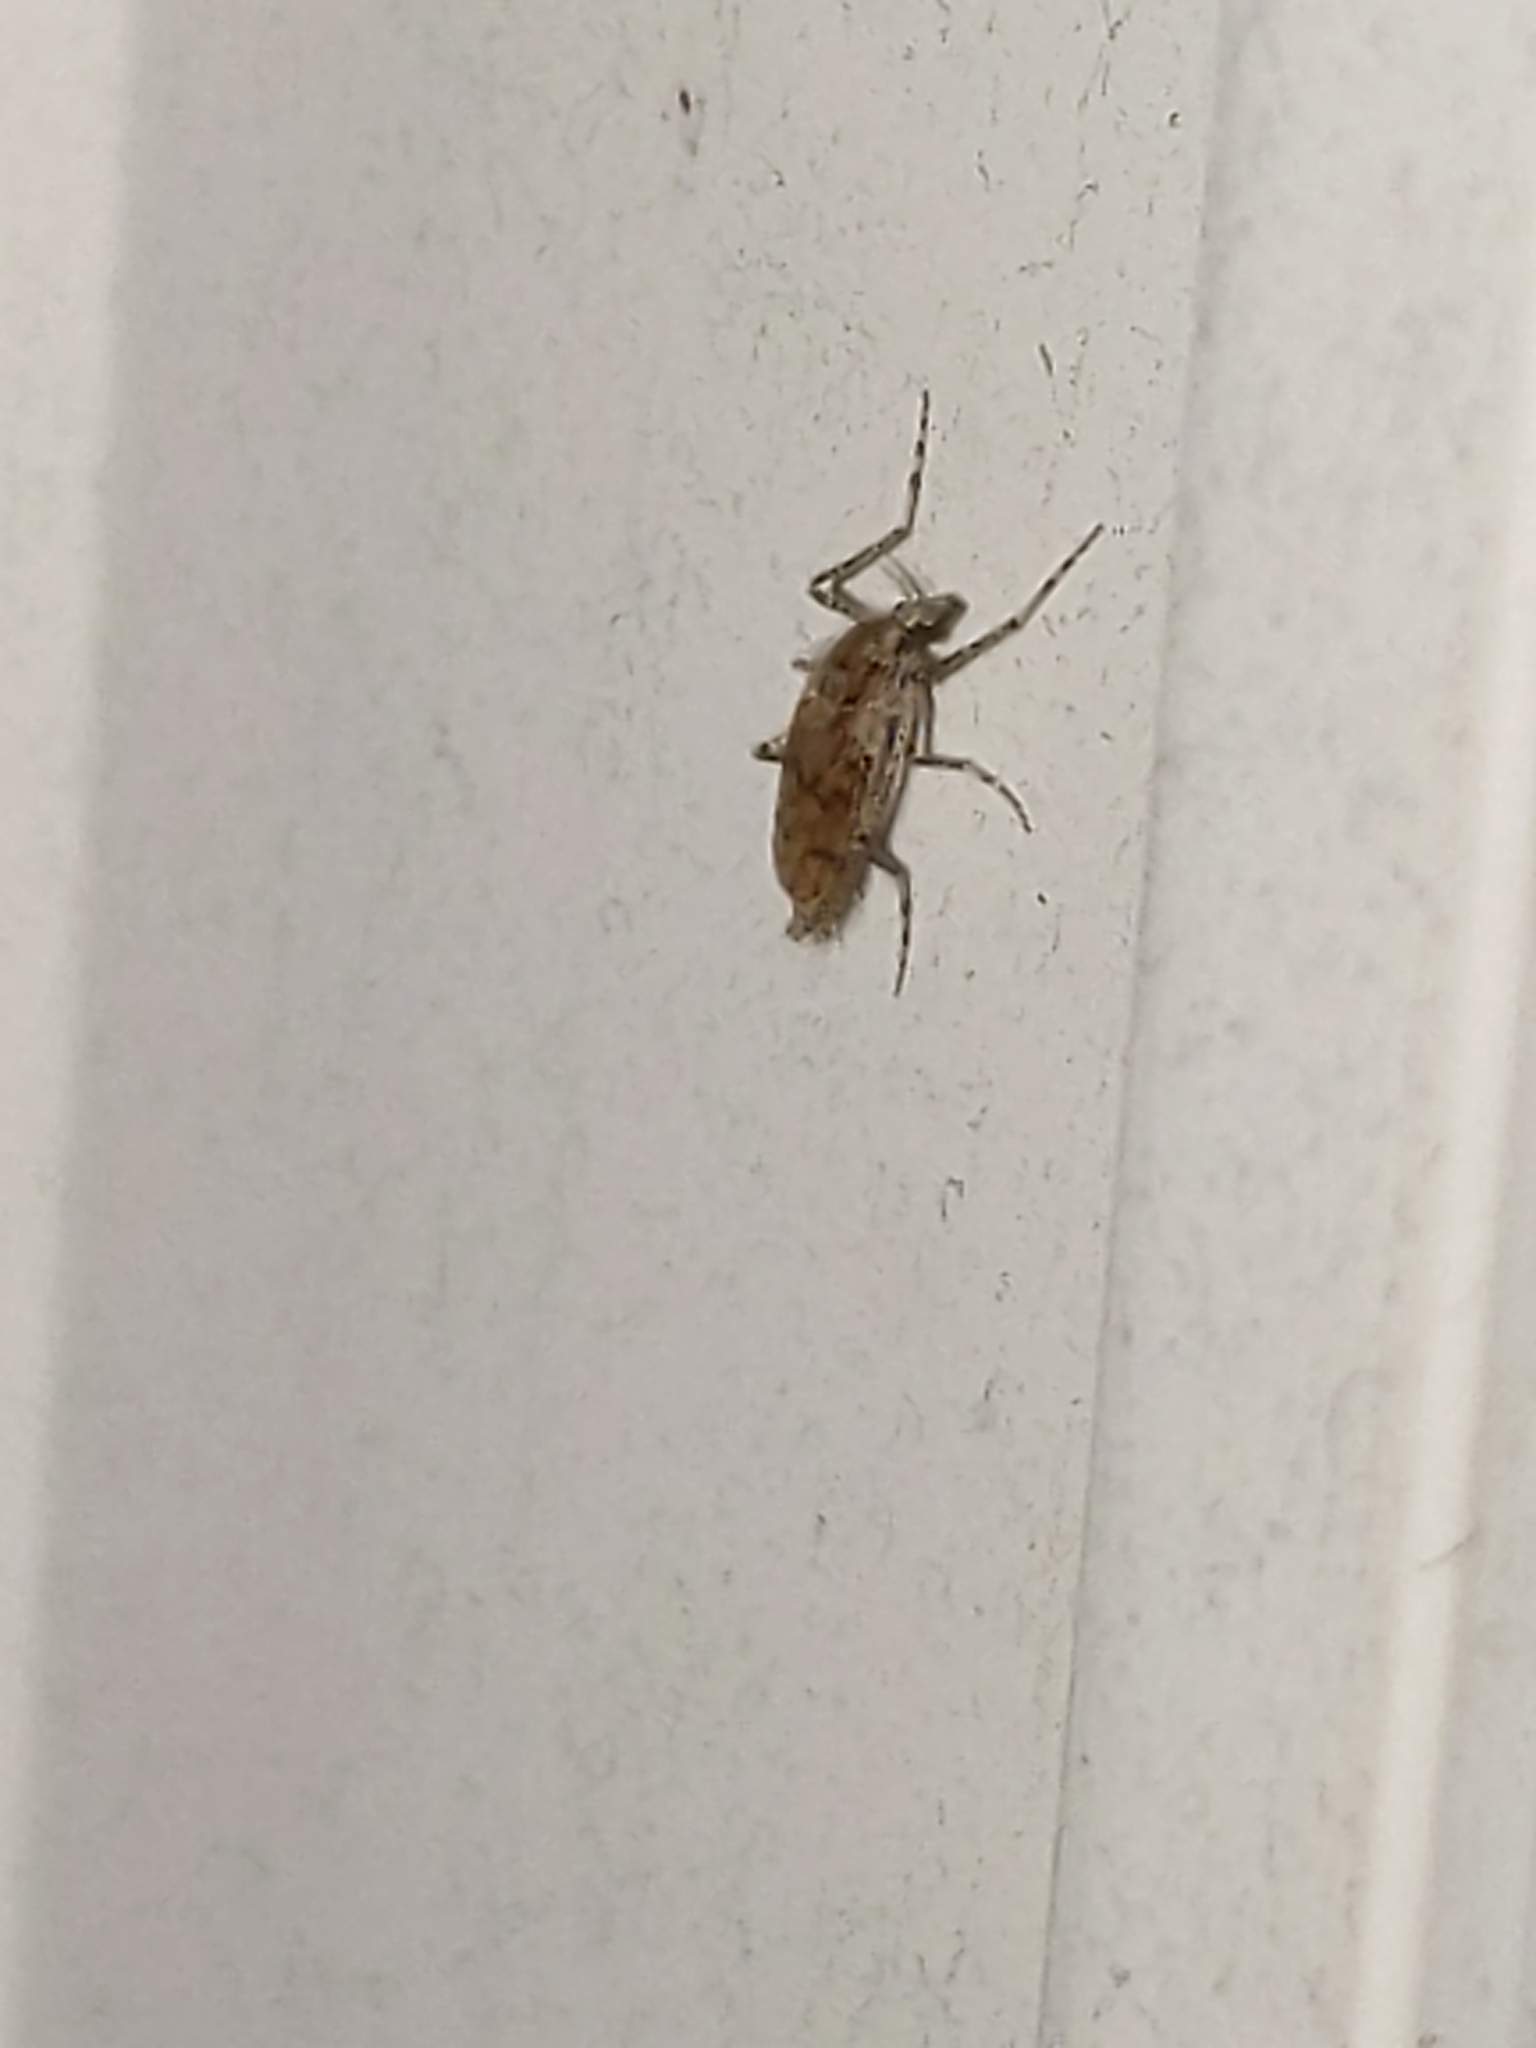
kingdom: Animalia
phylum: Arthropoda
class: Insecta
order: Diptera
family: Chaoboridae
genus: Chaoborus
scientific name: Chaoborus punctipennis
